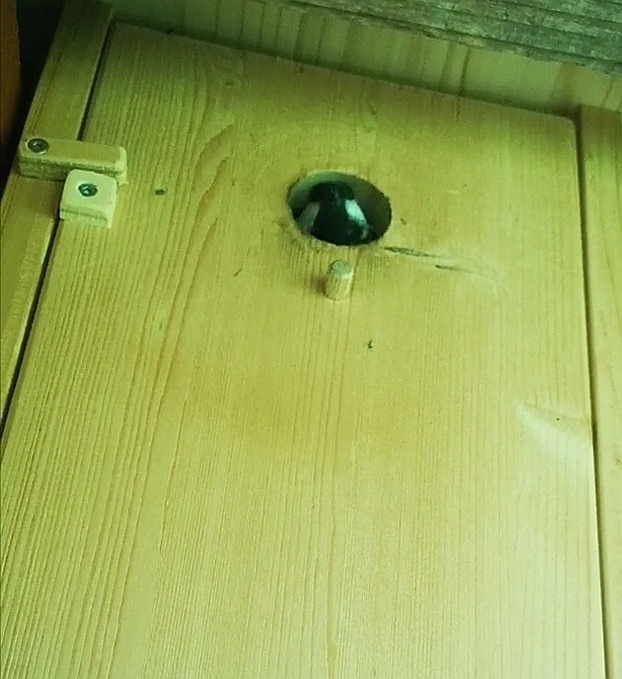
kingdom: Animalia
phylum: Chordata
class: Aves
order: Passeriformes
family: Paridae
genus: Parus
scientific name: Parus major
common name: Great tit
